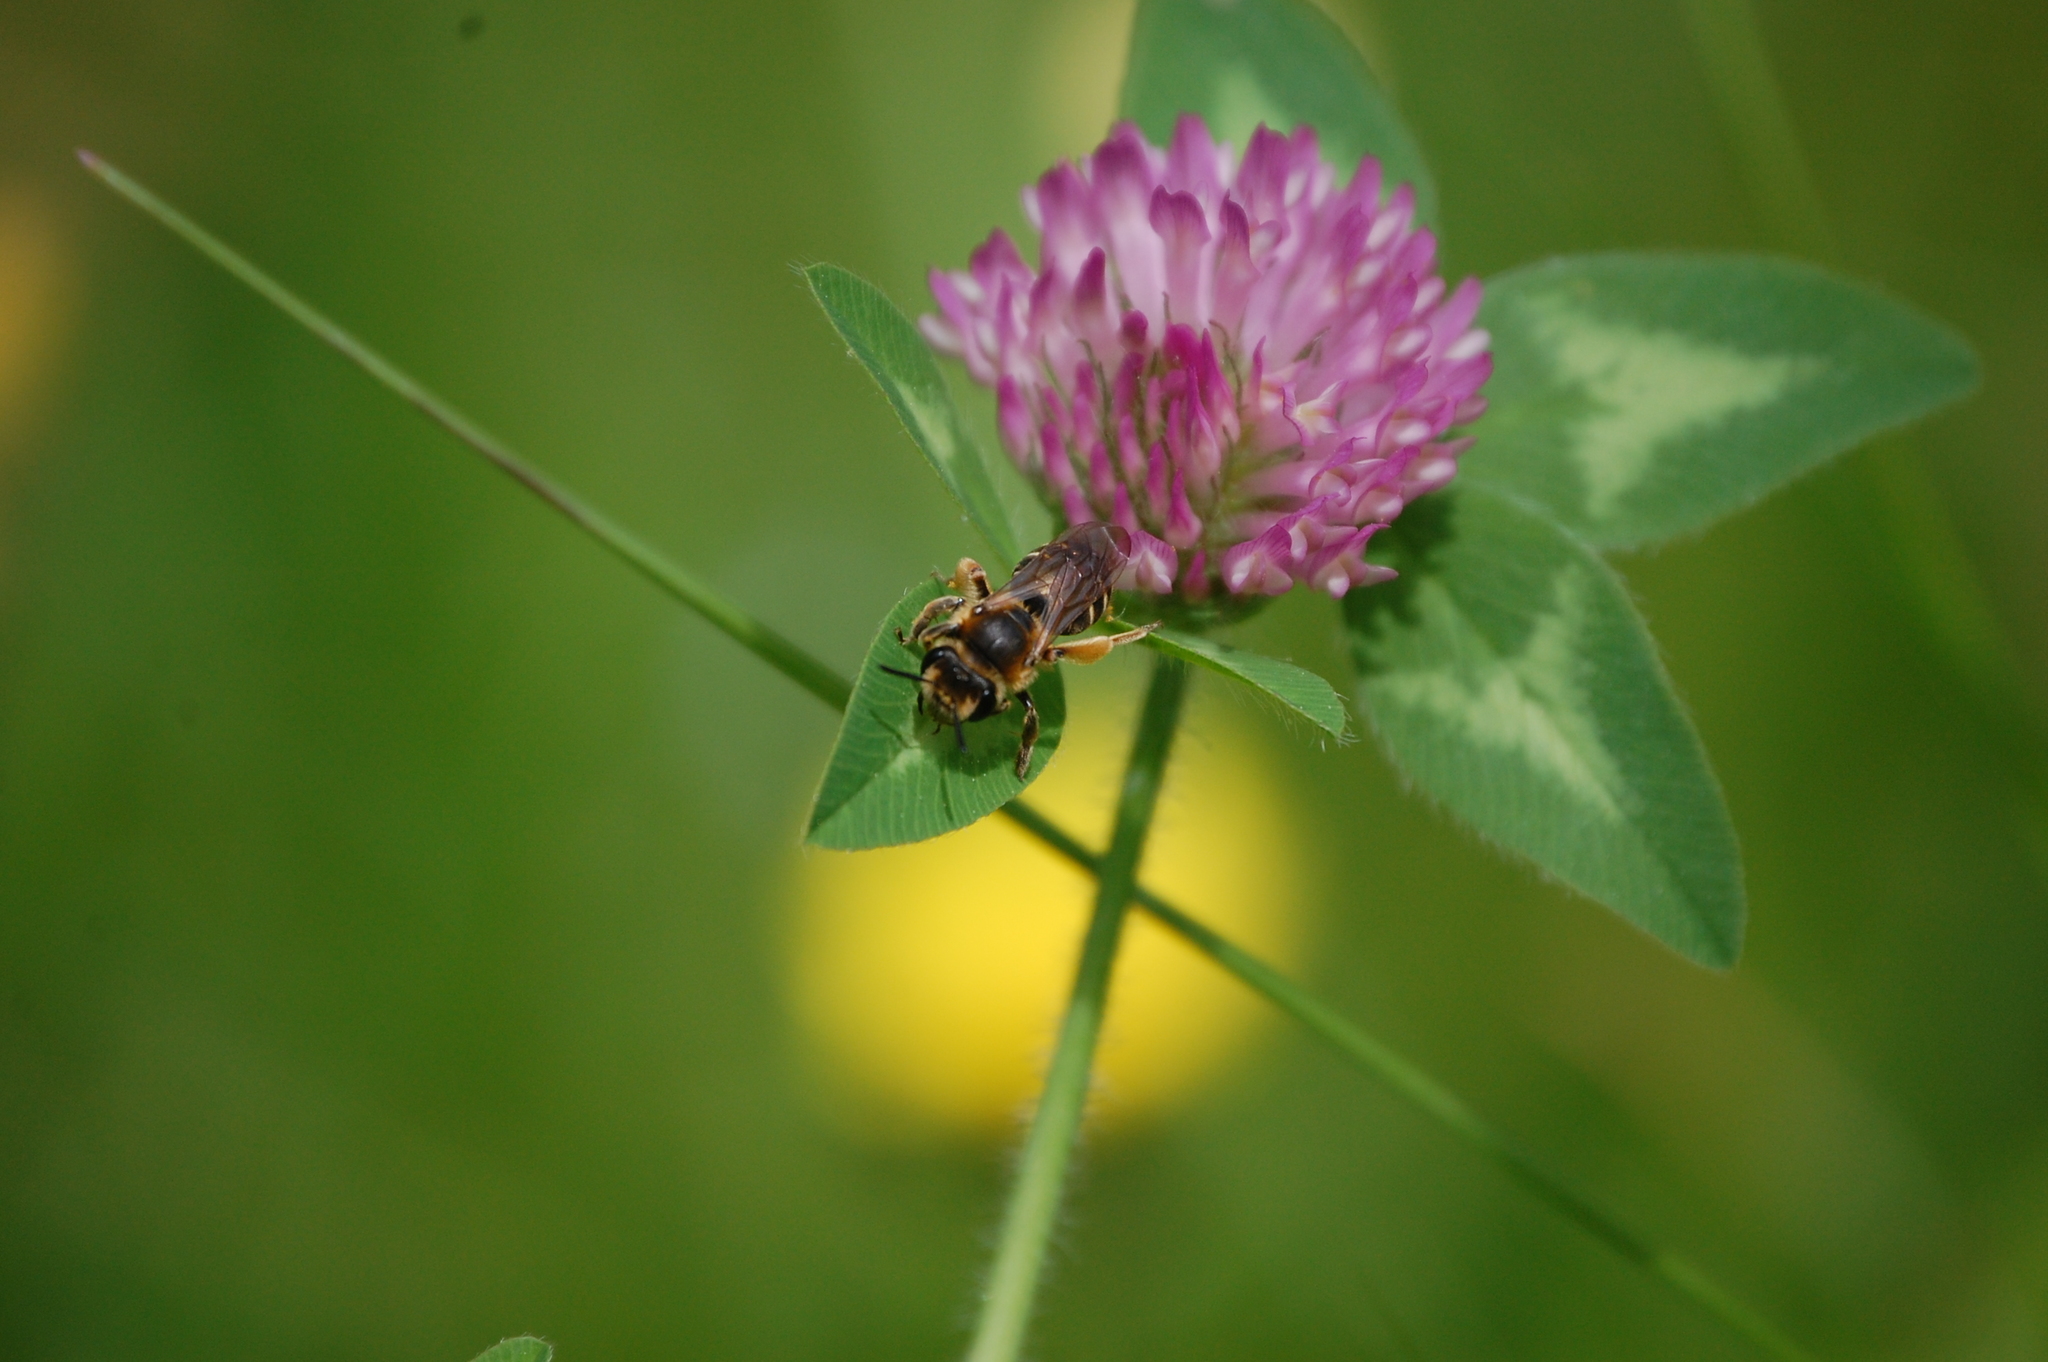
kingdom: Animalia
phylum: Arthropoda
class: Insecta
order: Hymenoptera
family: Andrenidae
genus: Andrena
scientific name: Andrena wilkella
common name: Wilke's mining bee
